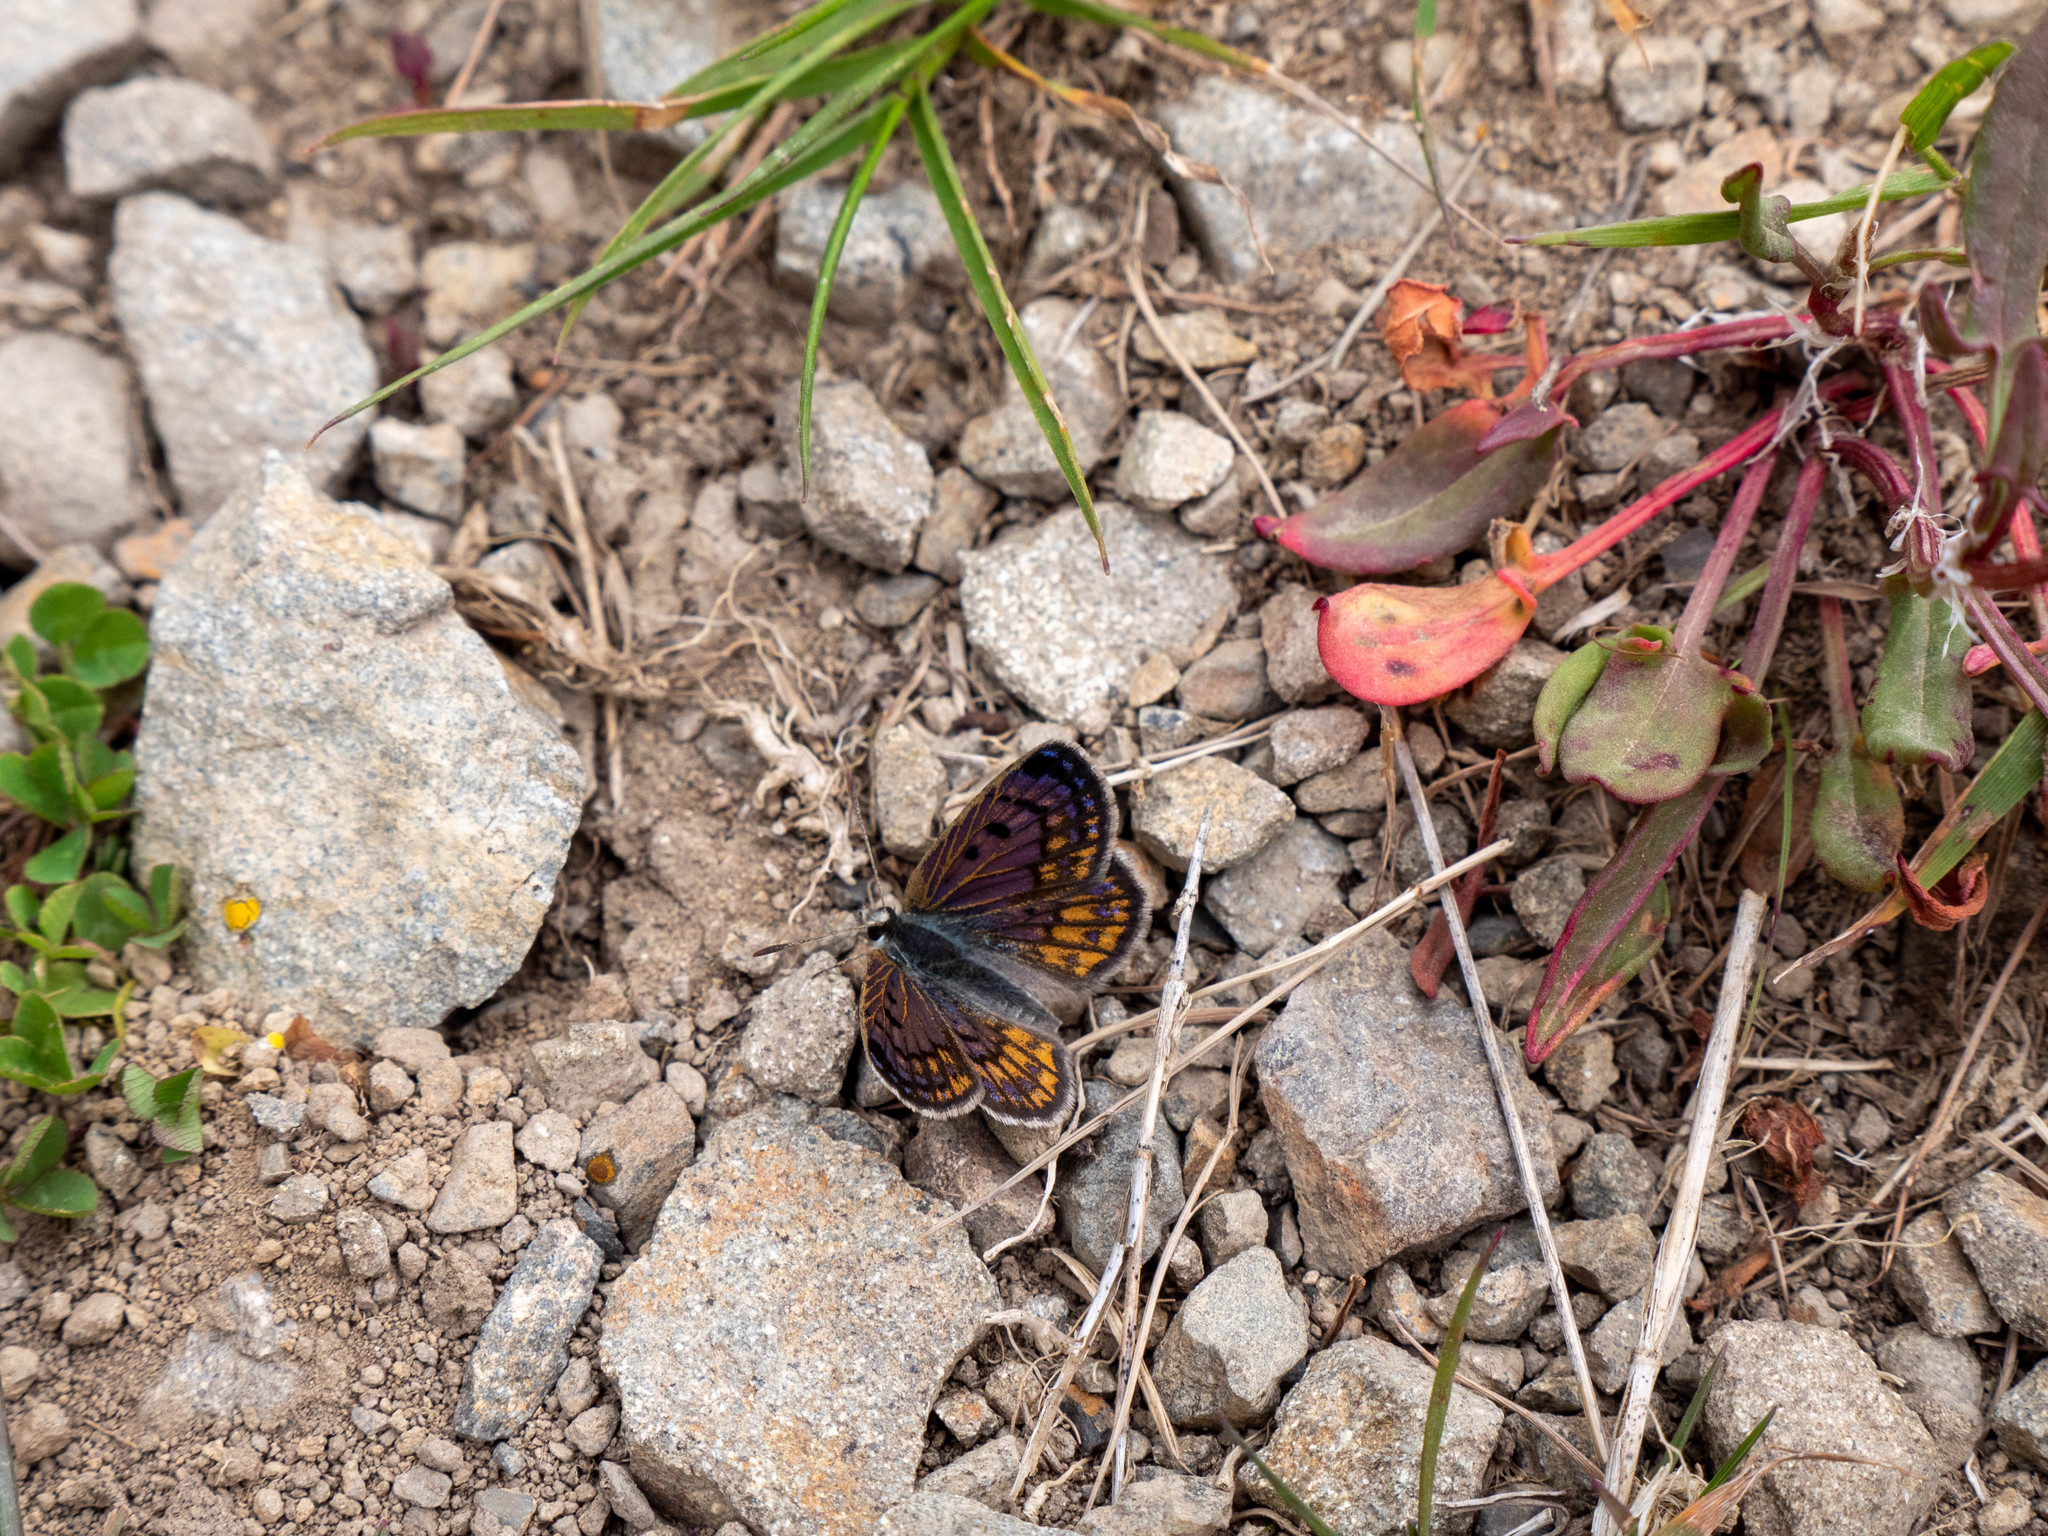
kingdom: Animalia
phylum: Arthropoda
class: Insecta
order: Lepidoptera
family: Lycaenidae
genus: Lycaena
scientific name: Lycaena boldenarum
